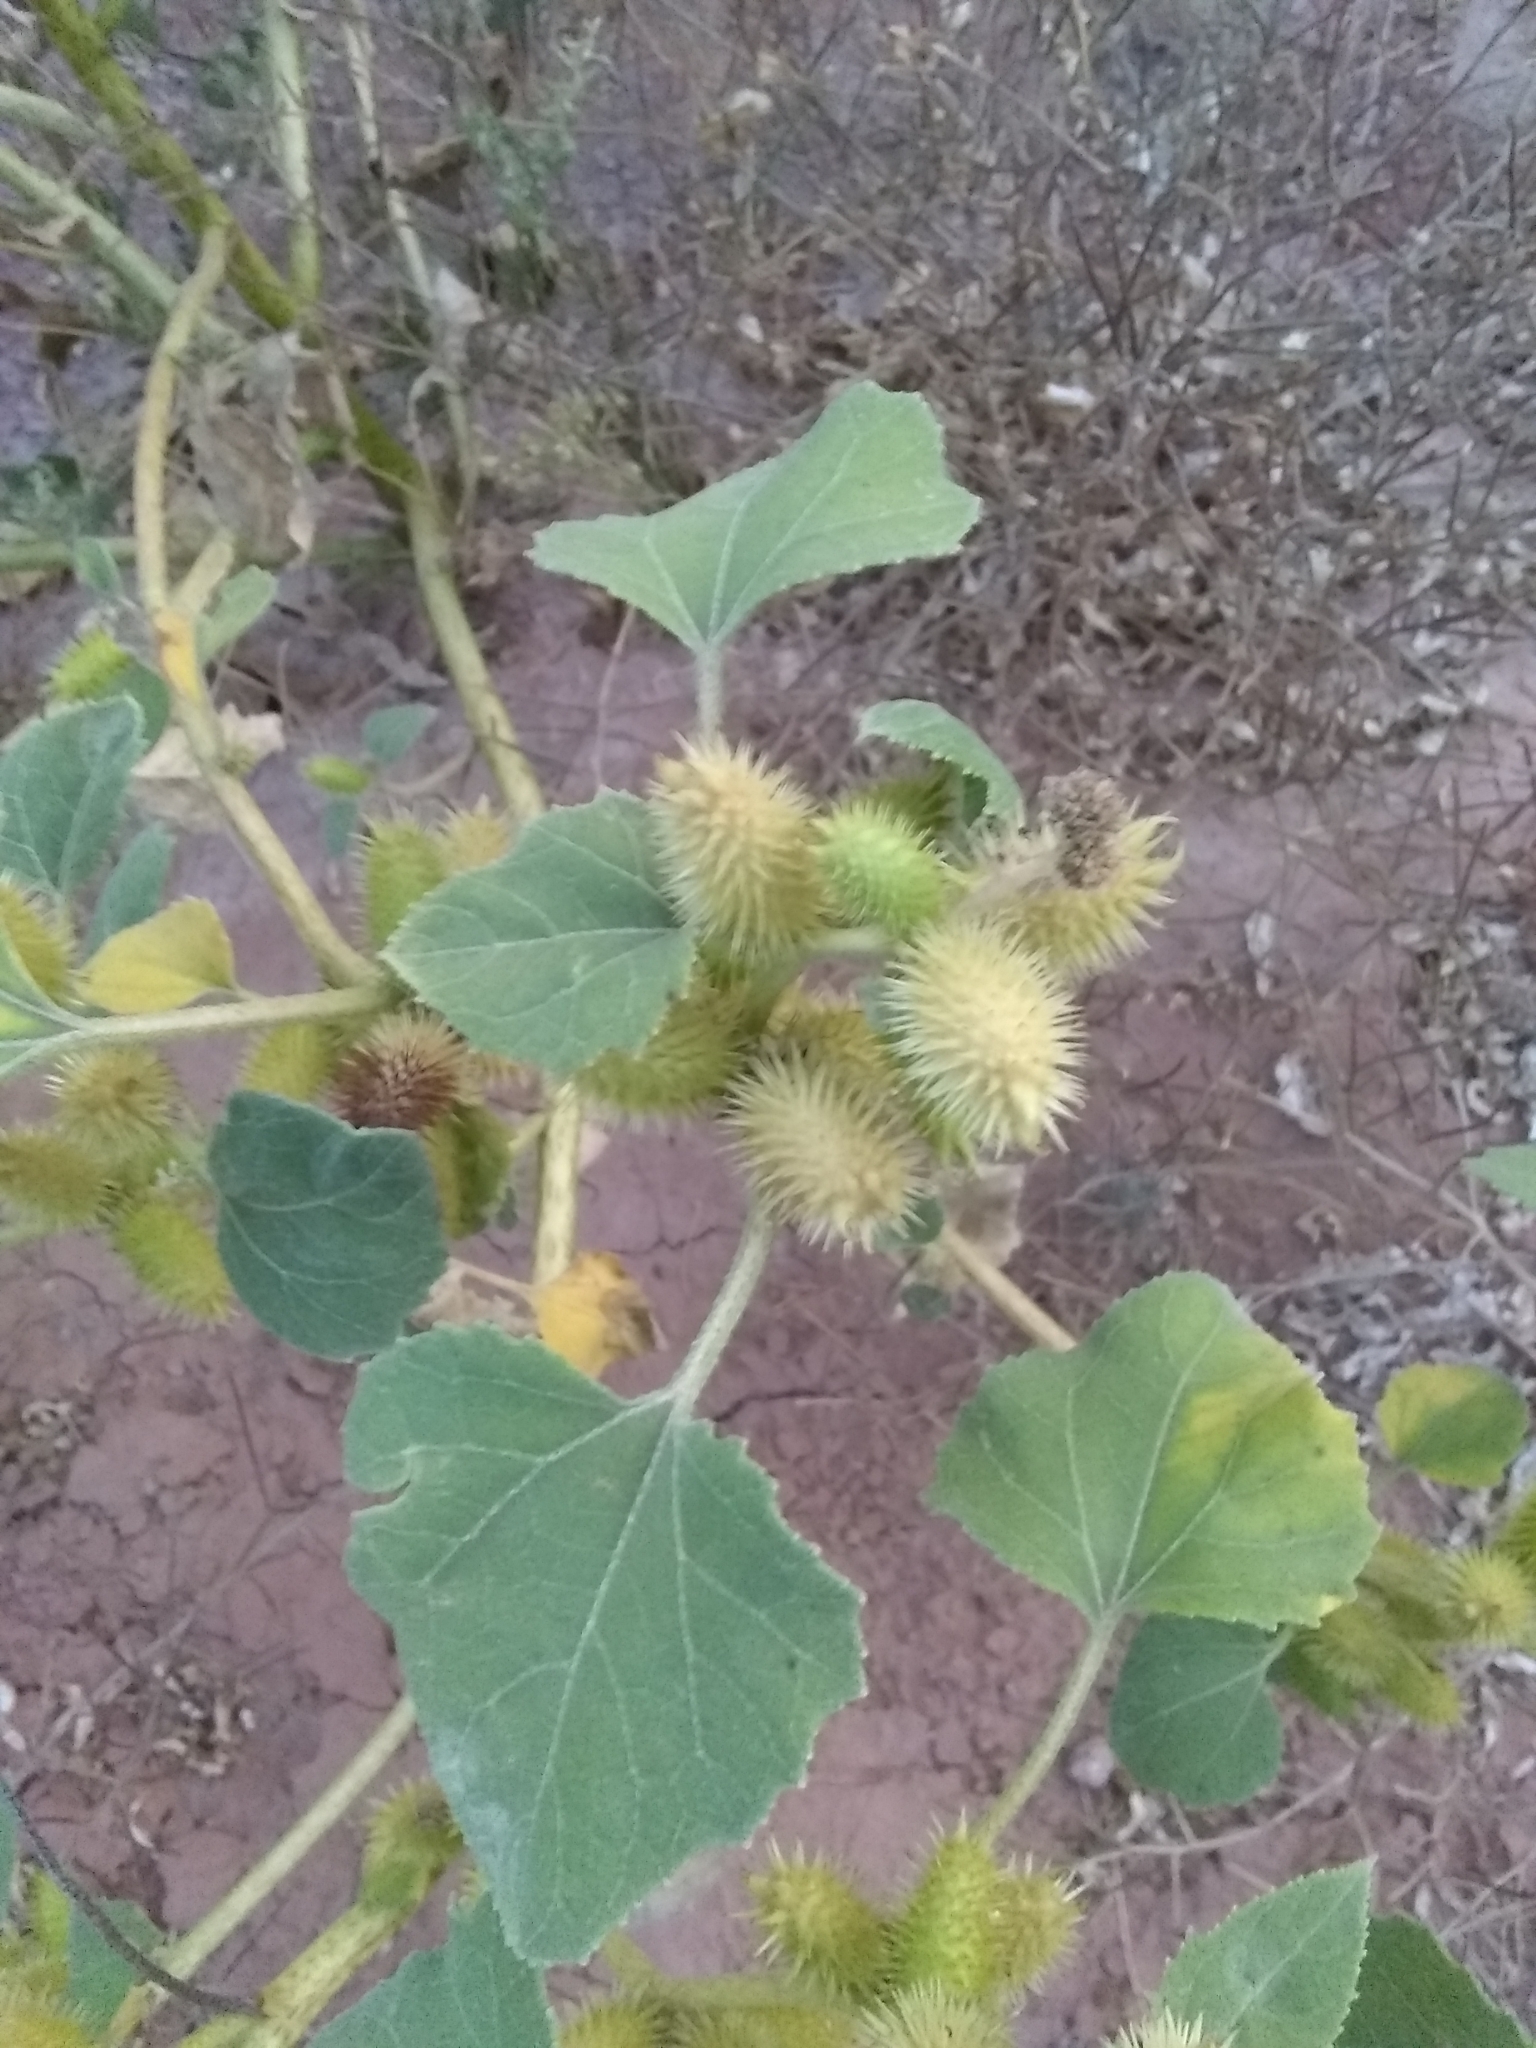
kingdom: Plantae
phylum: Tracheophyta
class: Magnoliopsida
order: Asterales
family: Asteraceae
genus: Xanthium
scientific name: Xanthium strumarium
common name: Rough cocklebur
